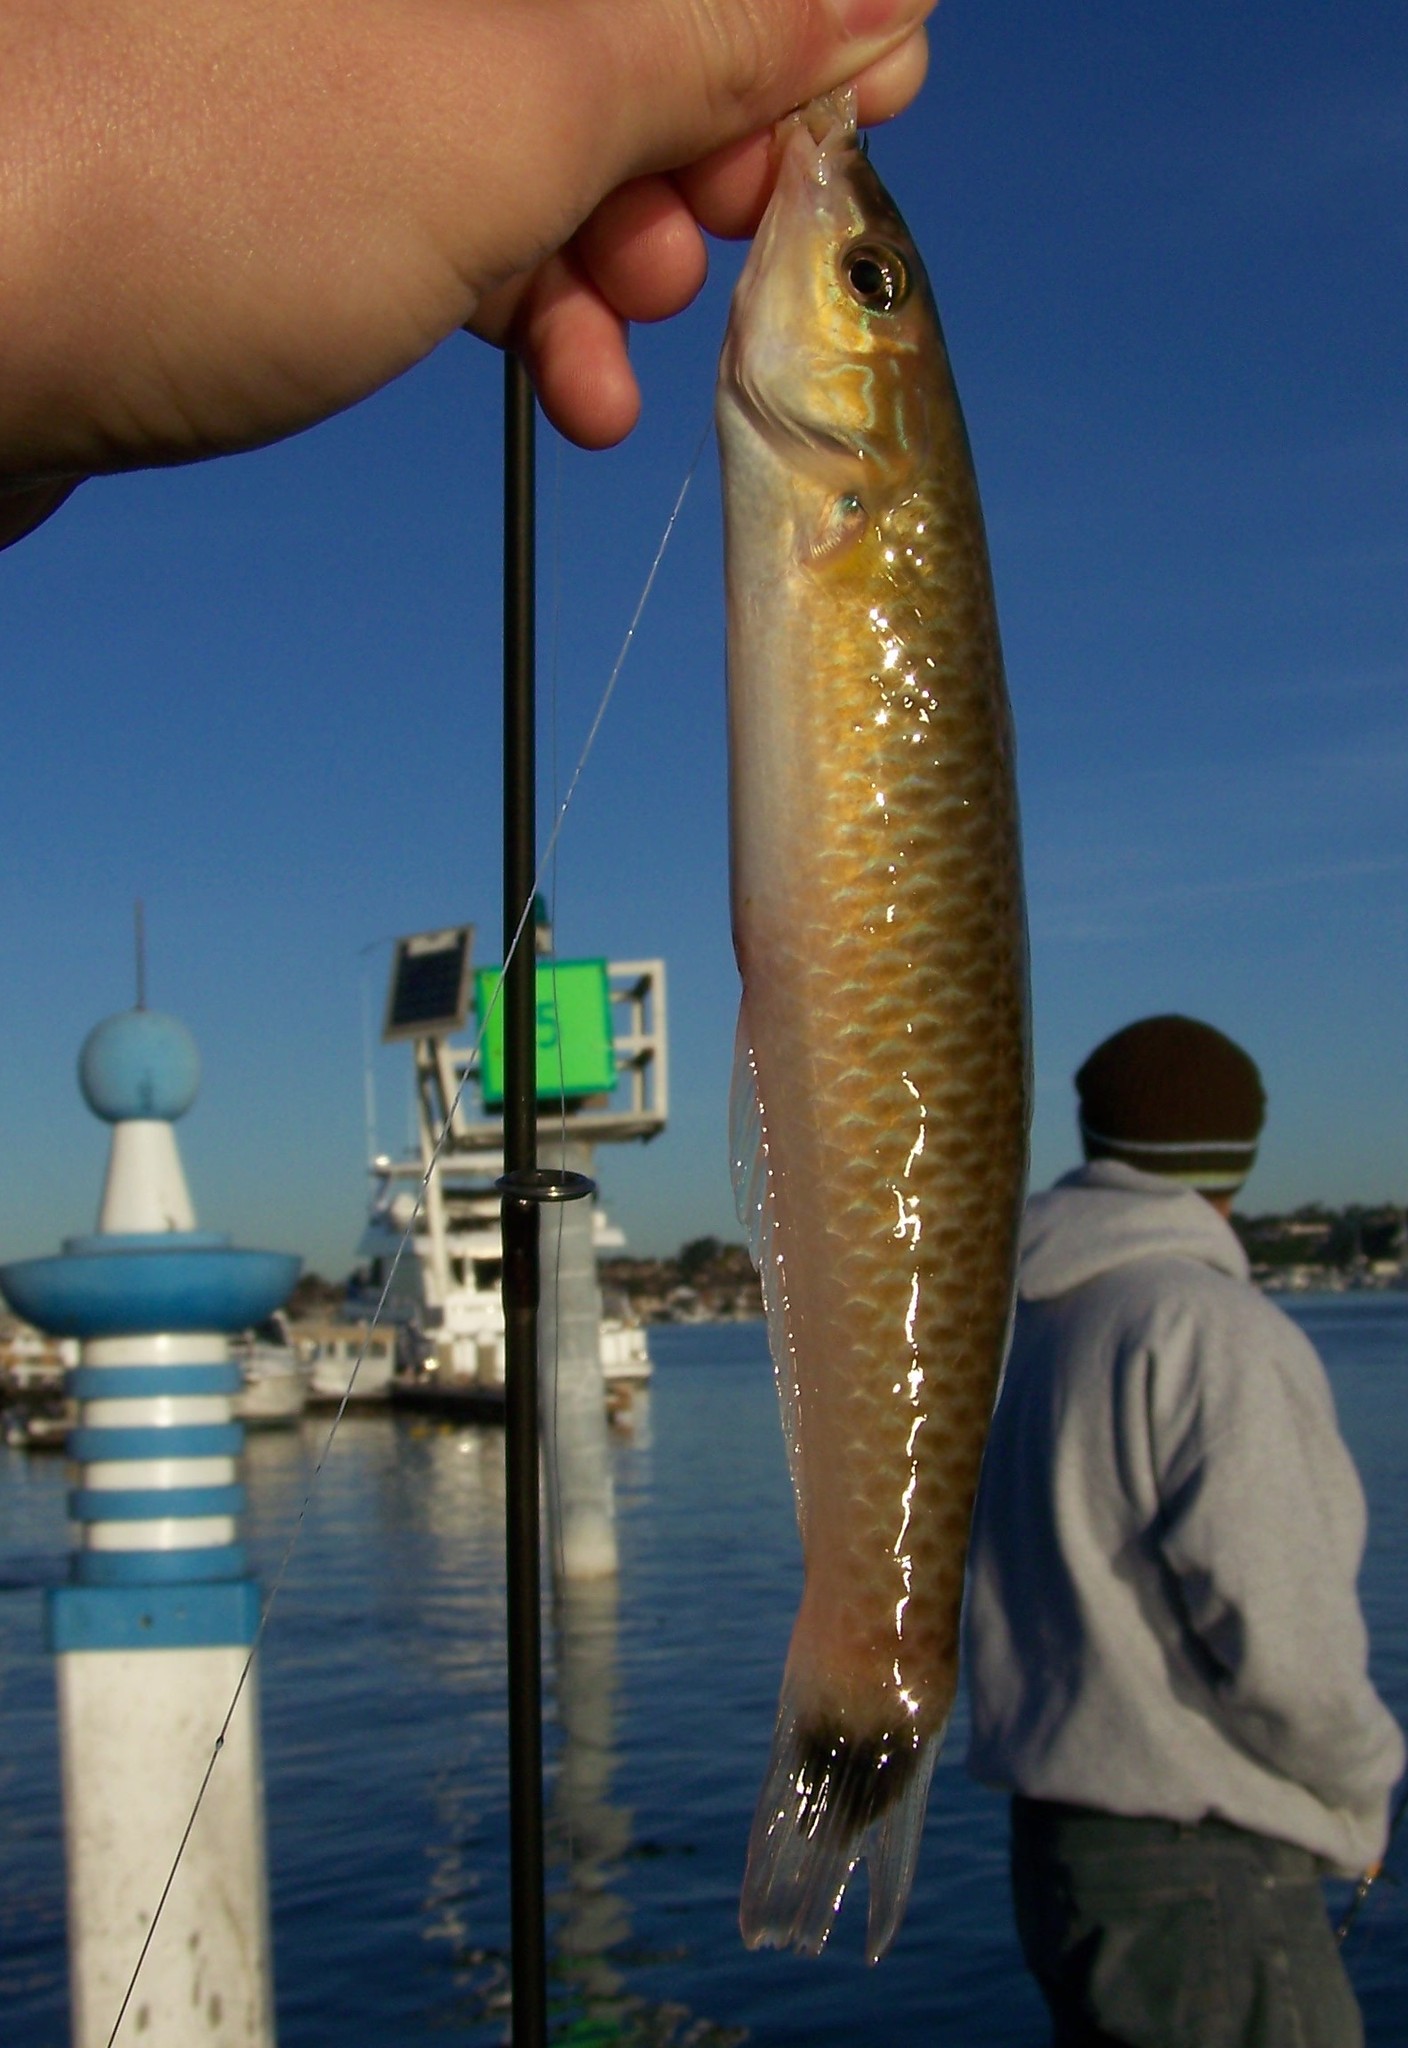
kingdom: Animalia
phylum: Chordata
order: Perciformes
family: Labridae
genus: Oxyjulis
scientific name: Oxyjulis californica
